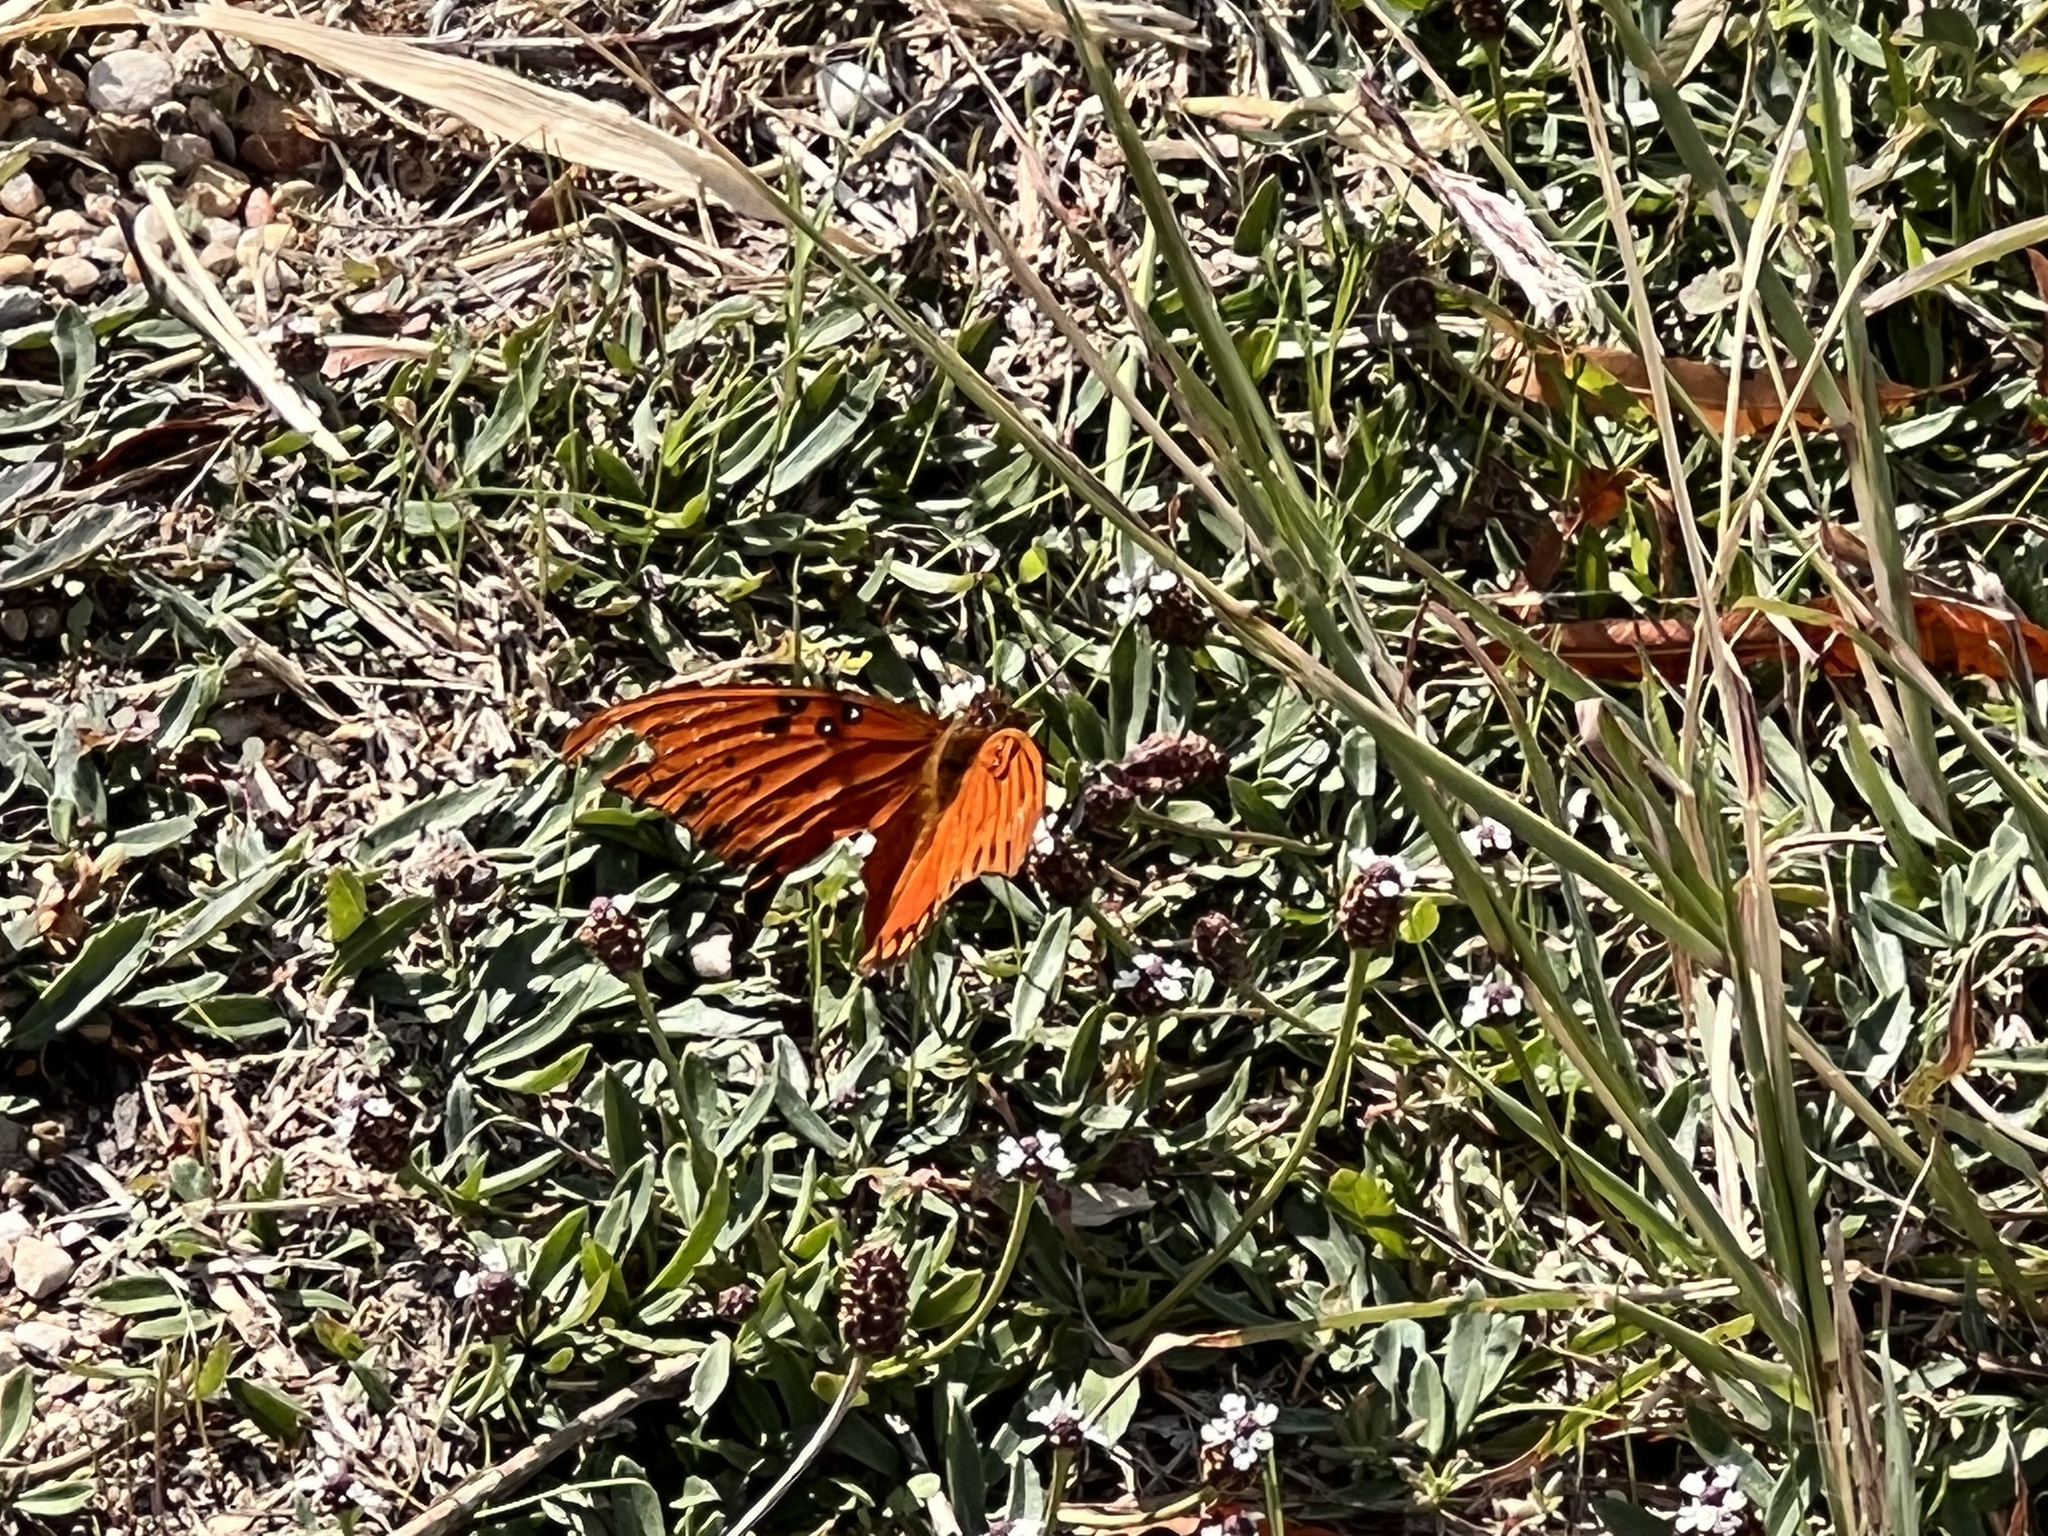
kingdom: Animalia
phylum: Arthropoda
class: Insecta
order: Lepidoptera
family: Nymphalidae
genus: Dione
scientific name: Dione vanillae
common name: Gulf fritillary
